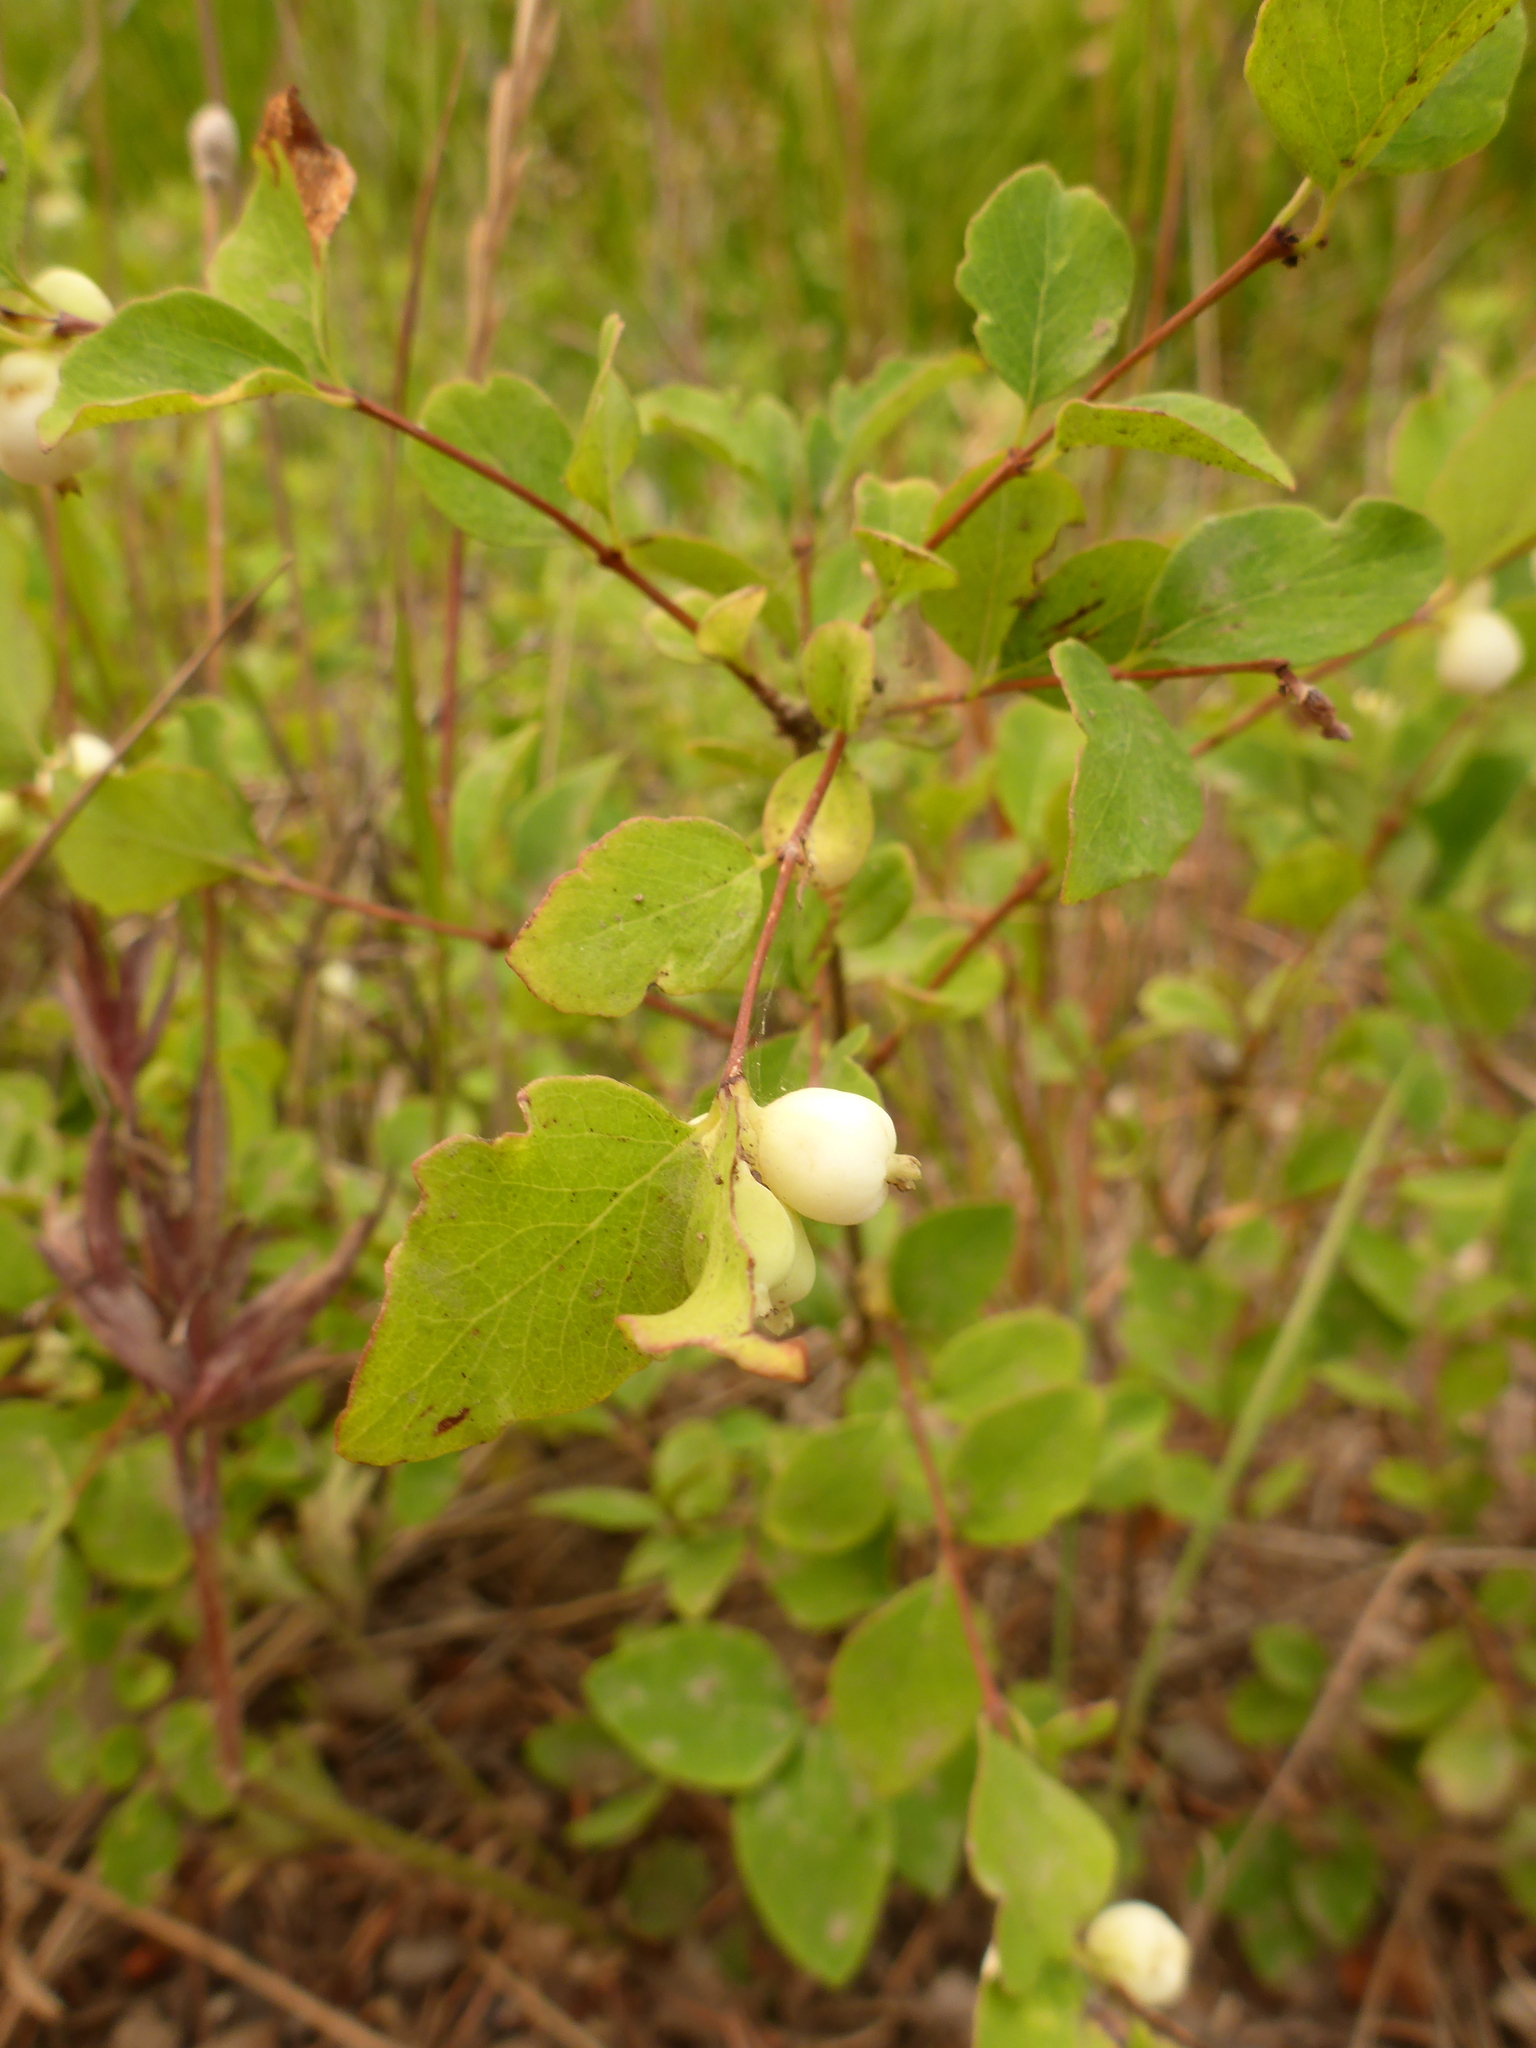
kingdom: Plantae
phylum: Tracheophyta
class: Magnoliopsida
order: Dipsacales
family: Caprifoliaceae
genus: Symphoricarpos
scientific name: Symphoricarpos albus
